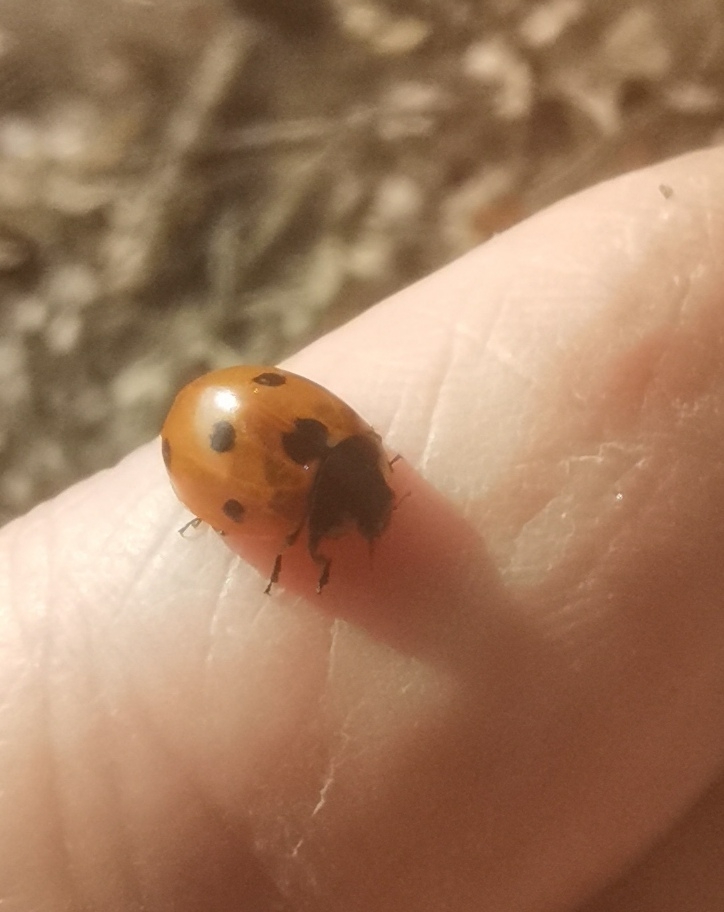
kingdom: Animalia
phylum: Arthropoda
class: Insecta
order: Coleoptera
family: Coccinellidae
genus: Coccinella
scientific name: Coccinella septempunctata
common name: Sevenspotted lady beetle
